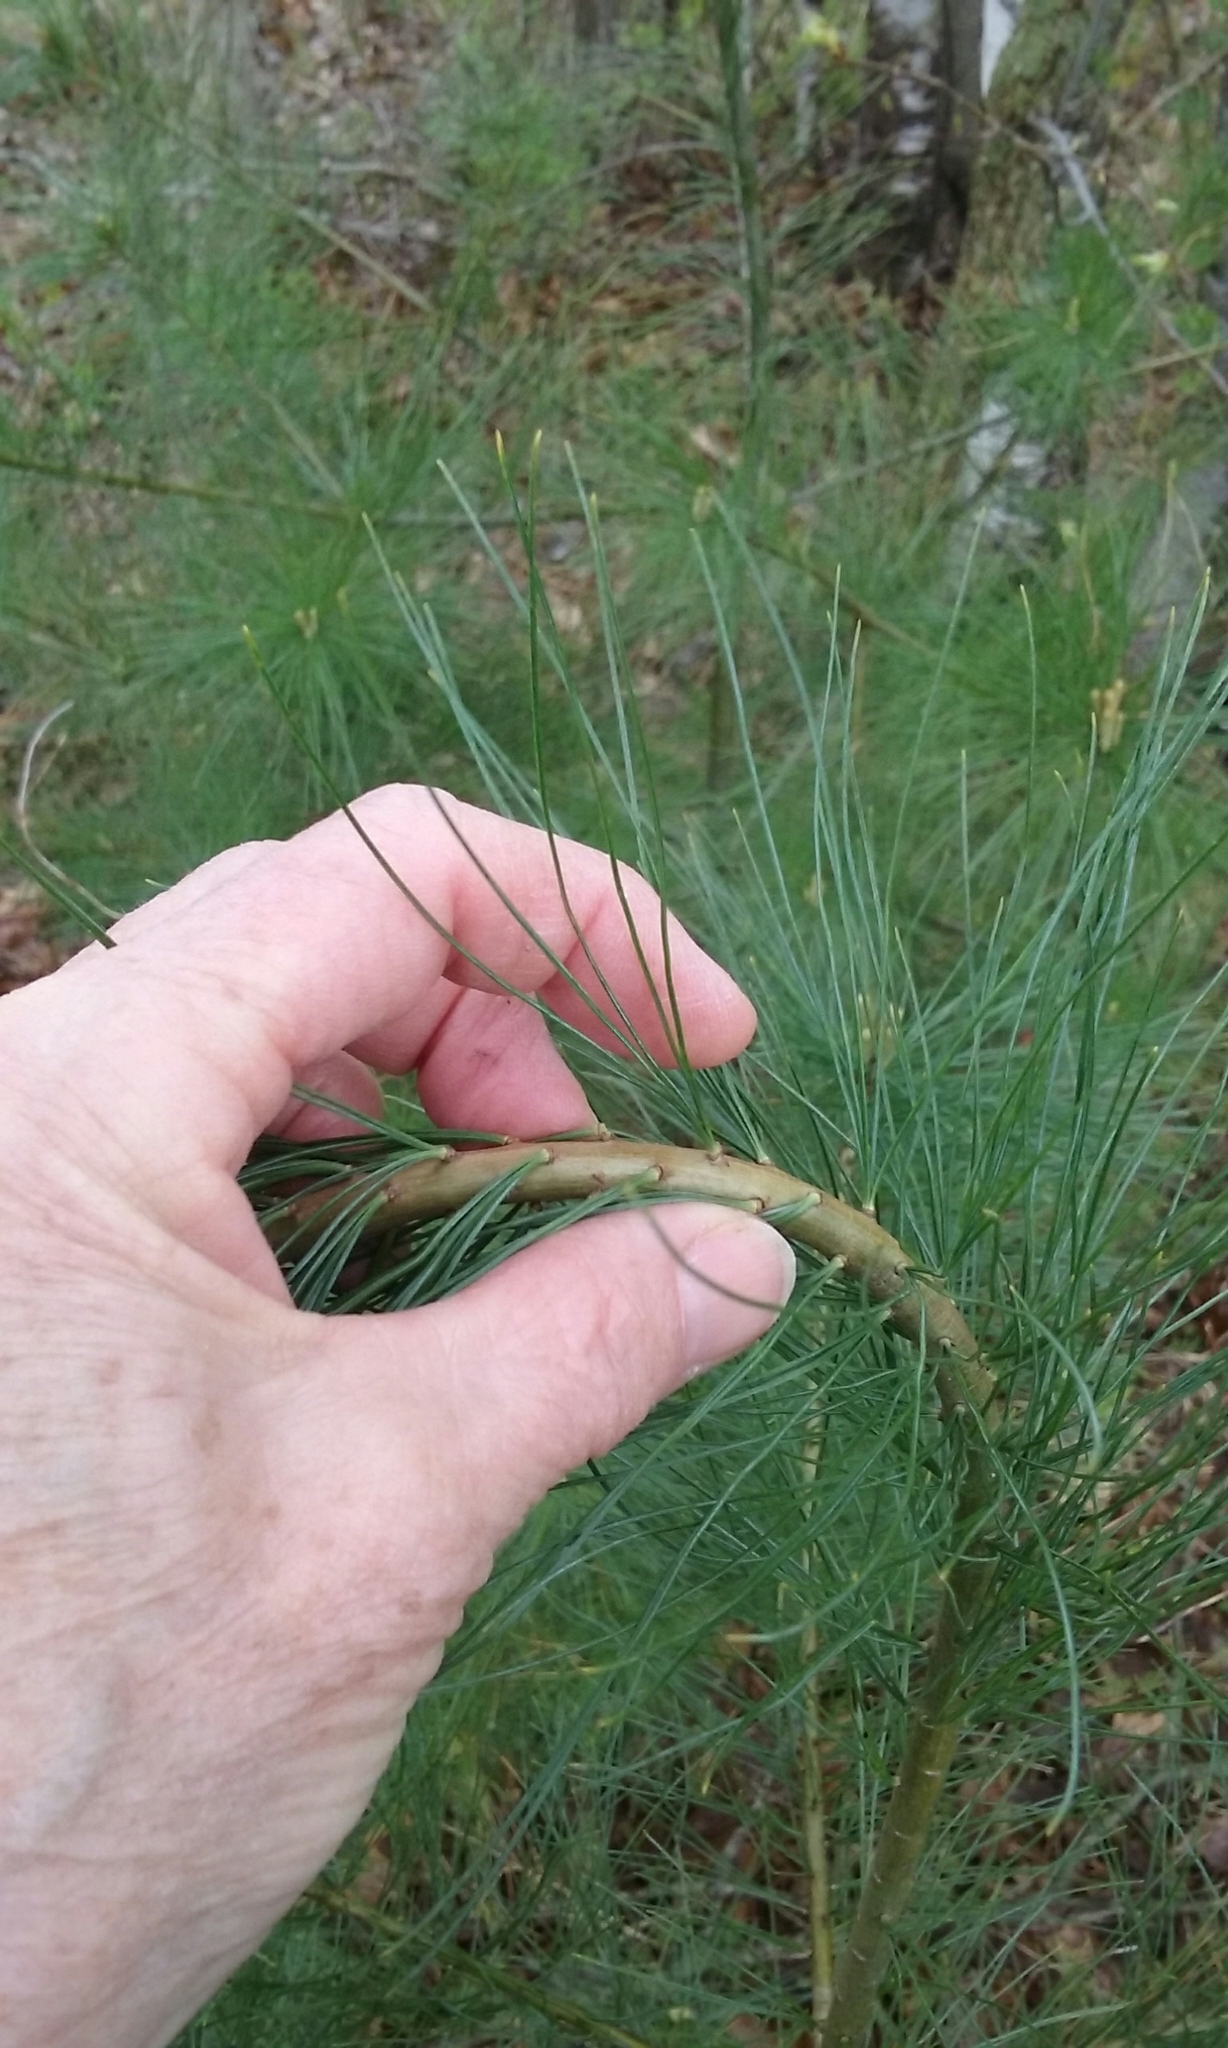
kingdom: Plantae
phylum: Tracheophyta
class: Pinopsida
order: Pinales
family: Pinaceae
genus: Pinus
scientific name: Pinus strobus
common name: Weymouth pine
